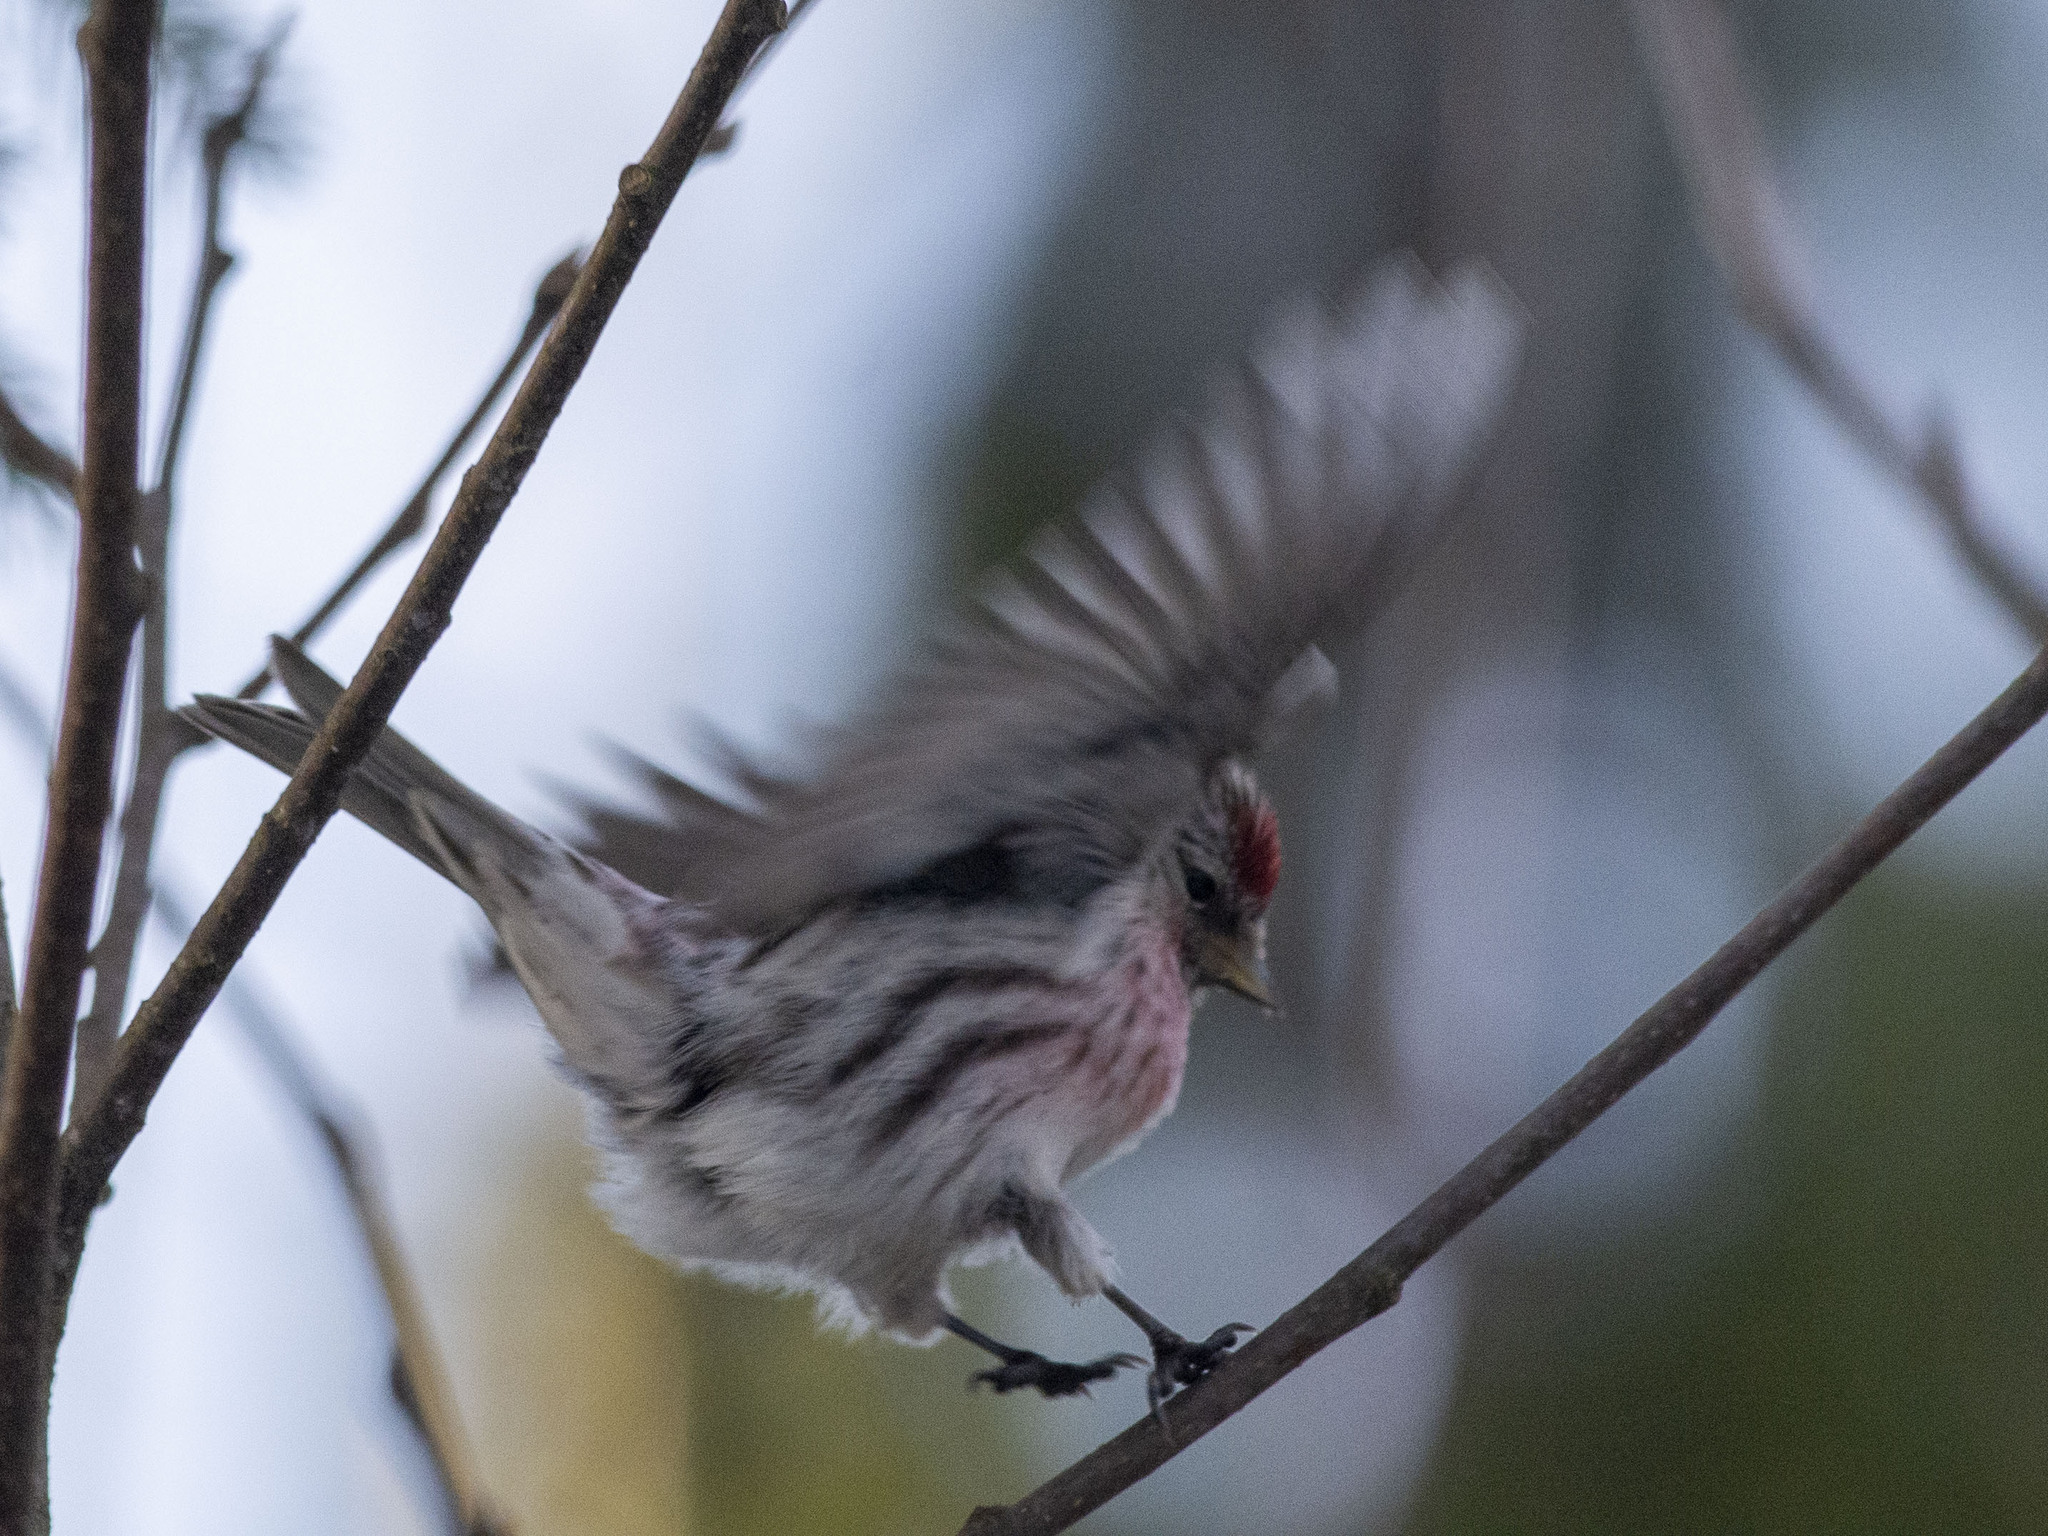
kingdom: Animalia
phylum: Chordata
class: Aves
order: Passeriformes
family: Fringillidae
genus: Acanthis
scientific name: Acanthis flammea
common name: Common redpoll
